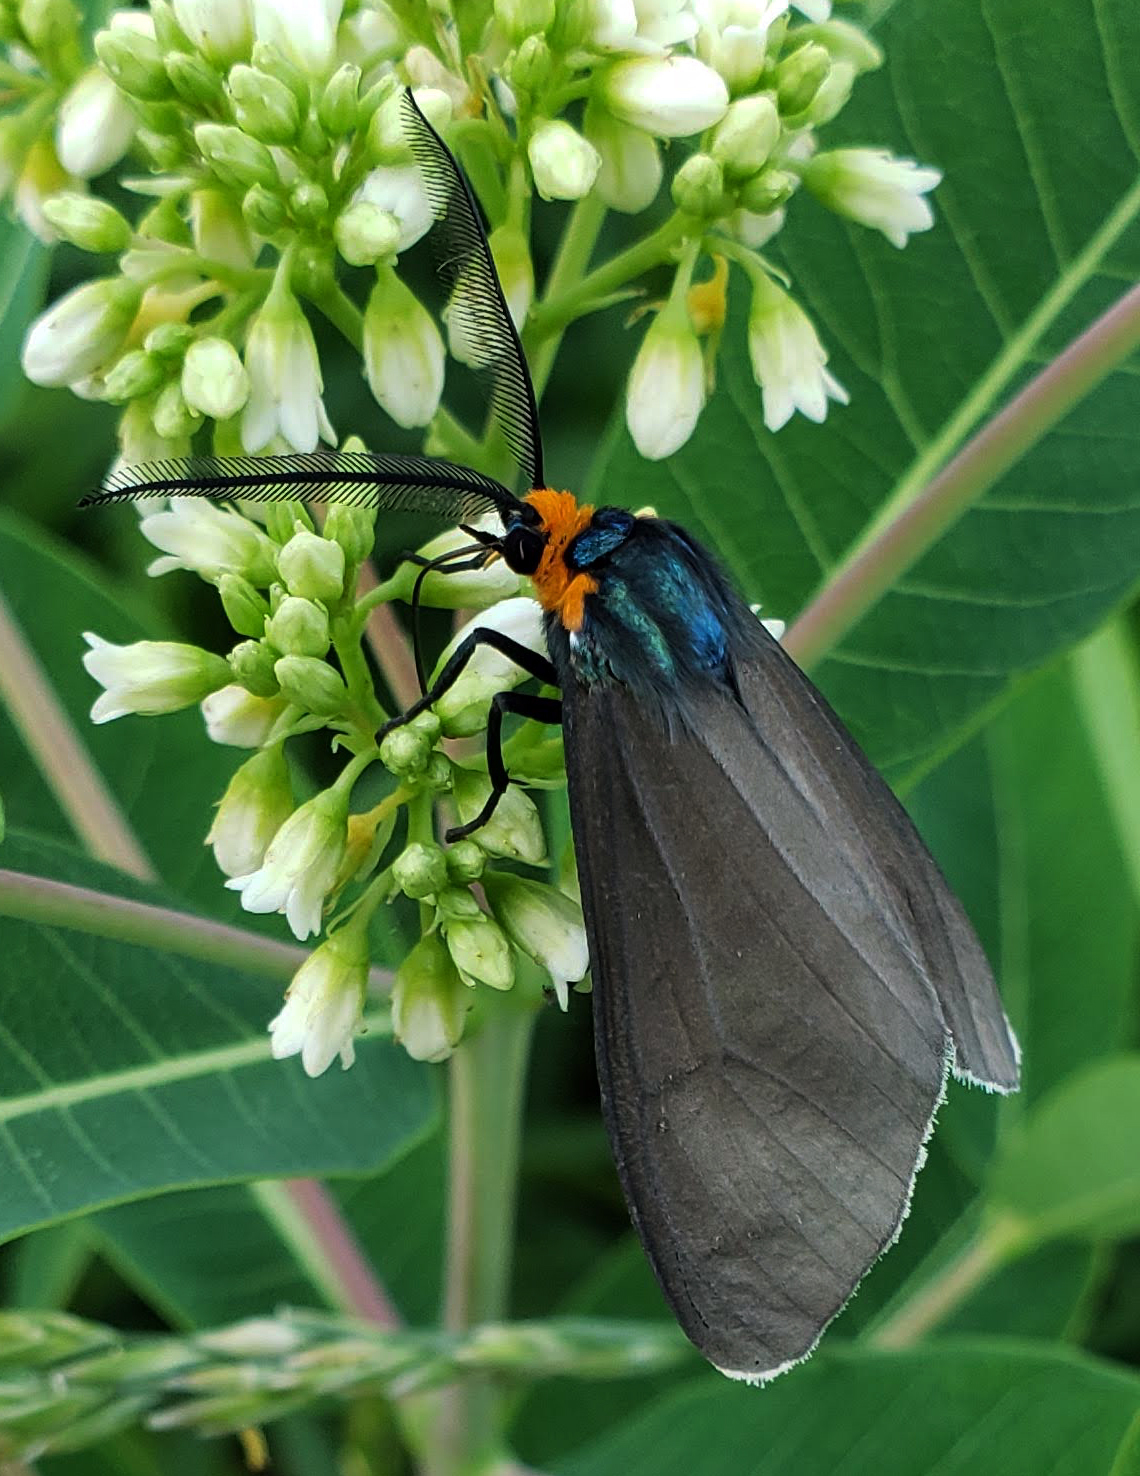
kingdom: Animalia
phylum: Arthropoda
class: Insecta
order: Lepidoptera
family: Erebidae
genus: Ctenucha
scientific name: Ctenucha virginica
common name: Virginia ctenucha moth
